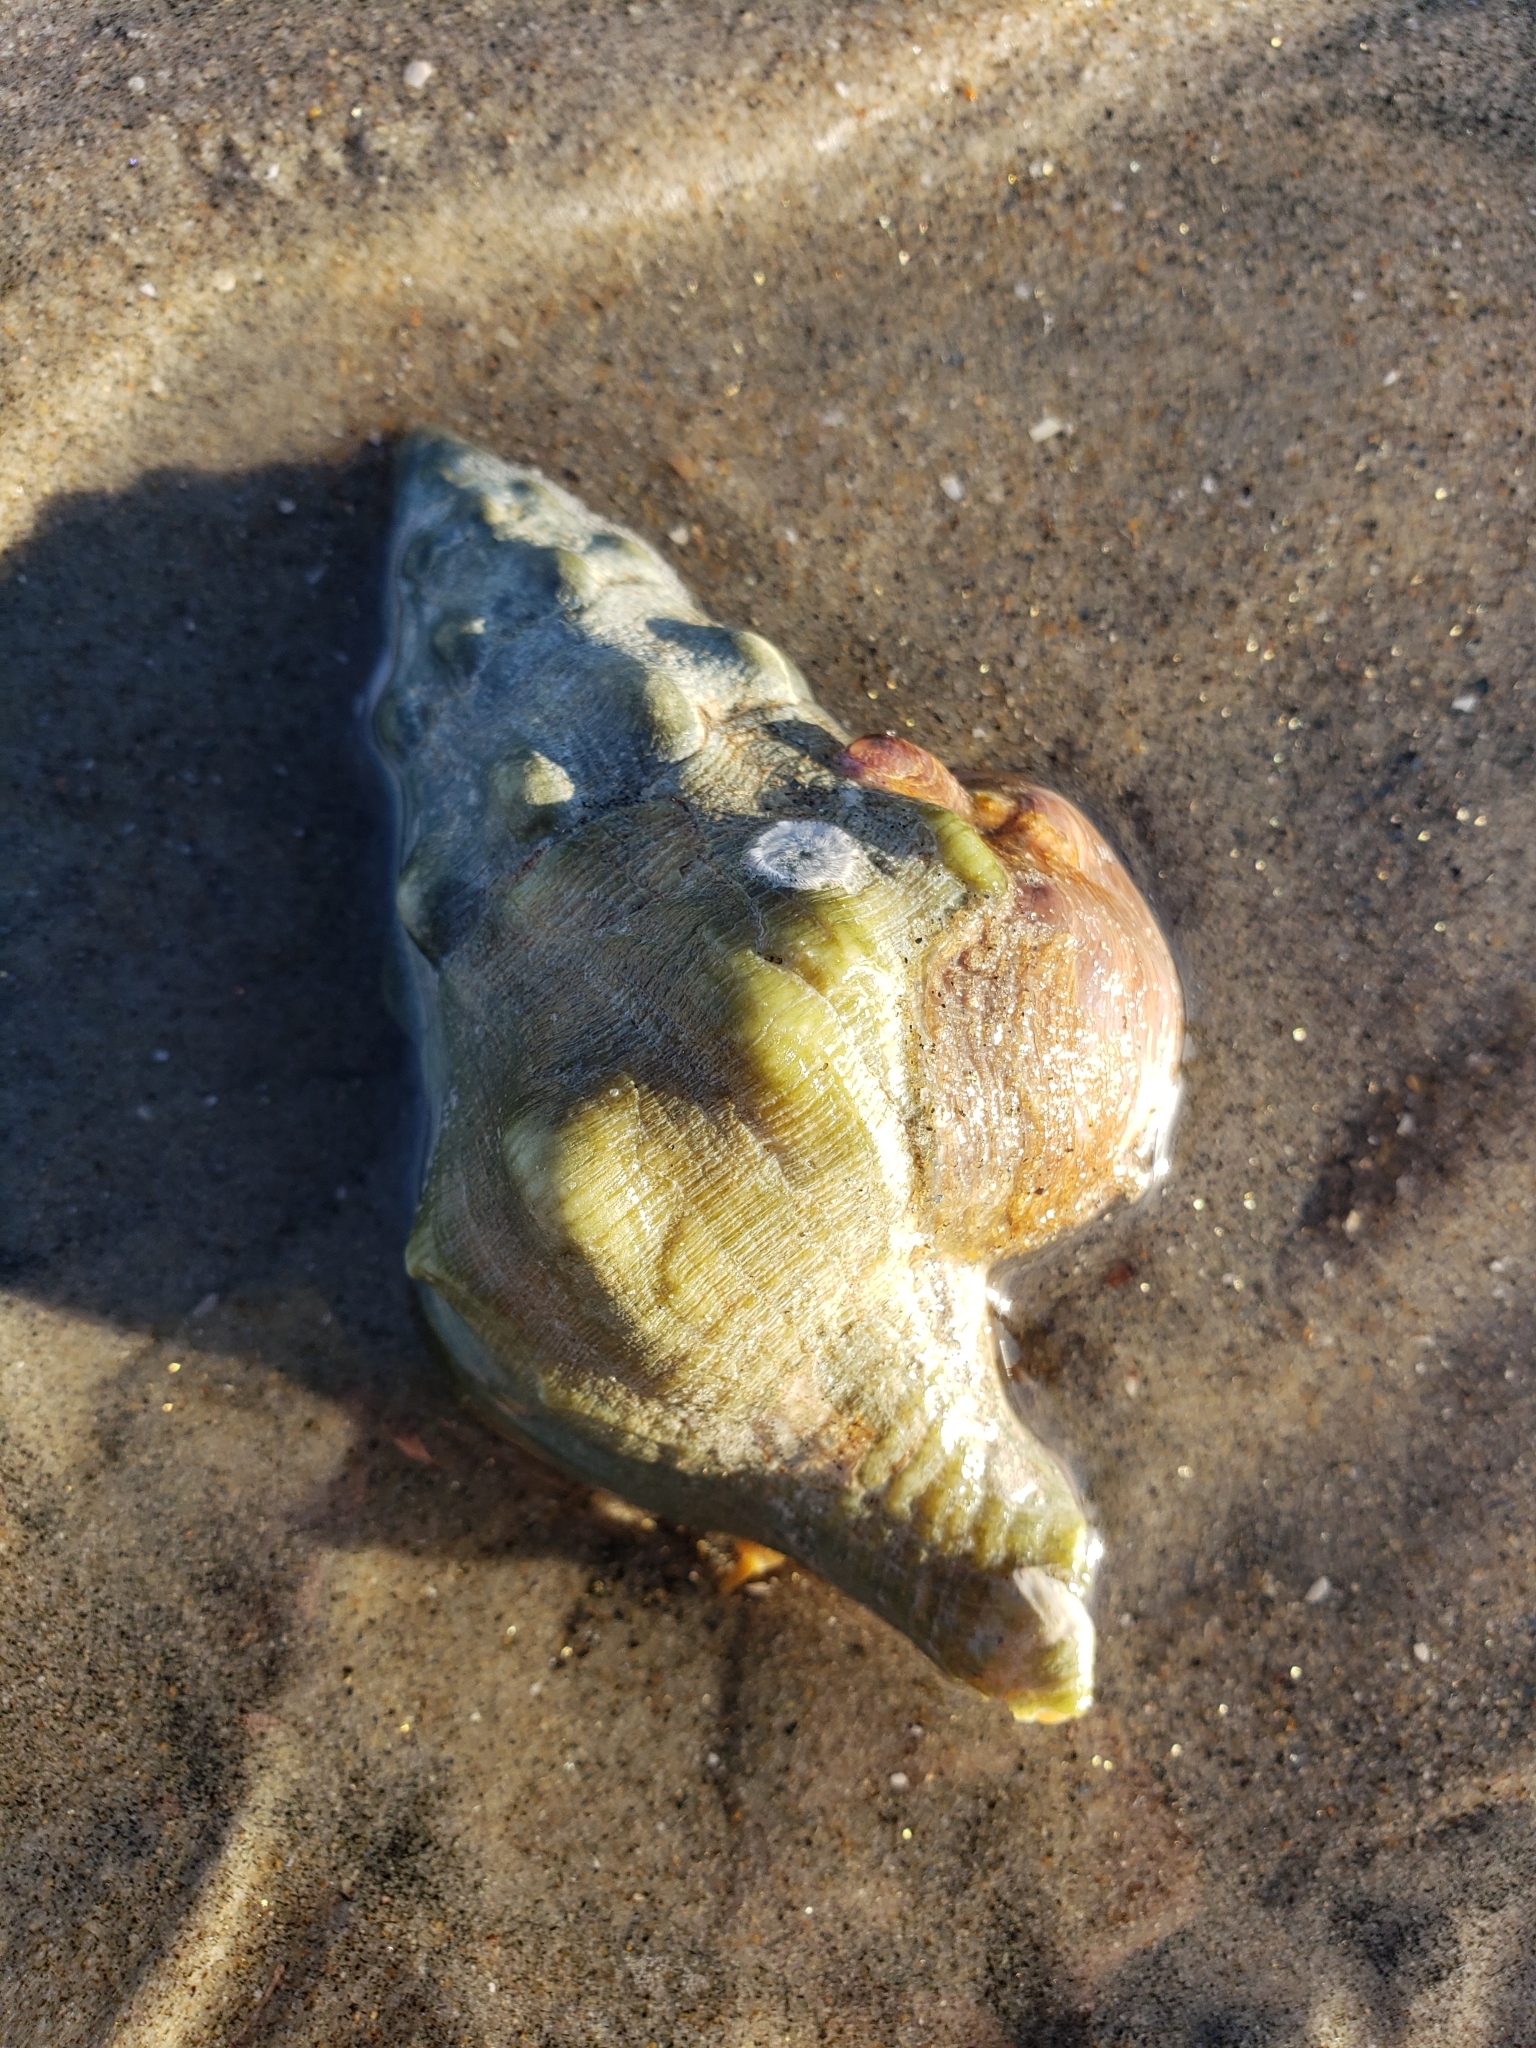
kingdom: Animalia
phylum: Mollusca
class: Gastropoda
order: Neogastropoda
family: Austrosiphonidae
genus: Kelletia
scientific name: Kelletia kelletii
